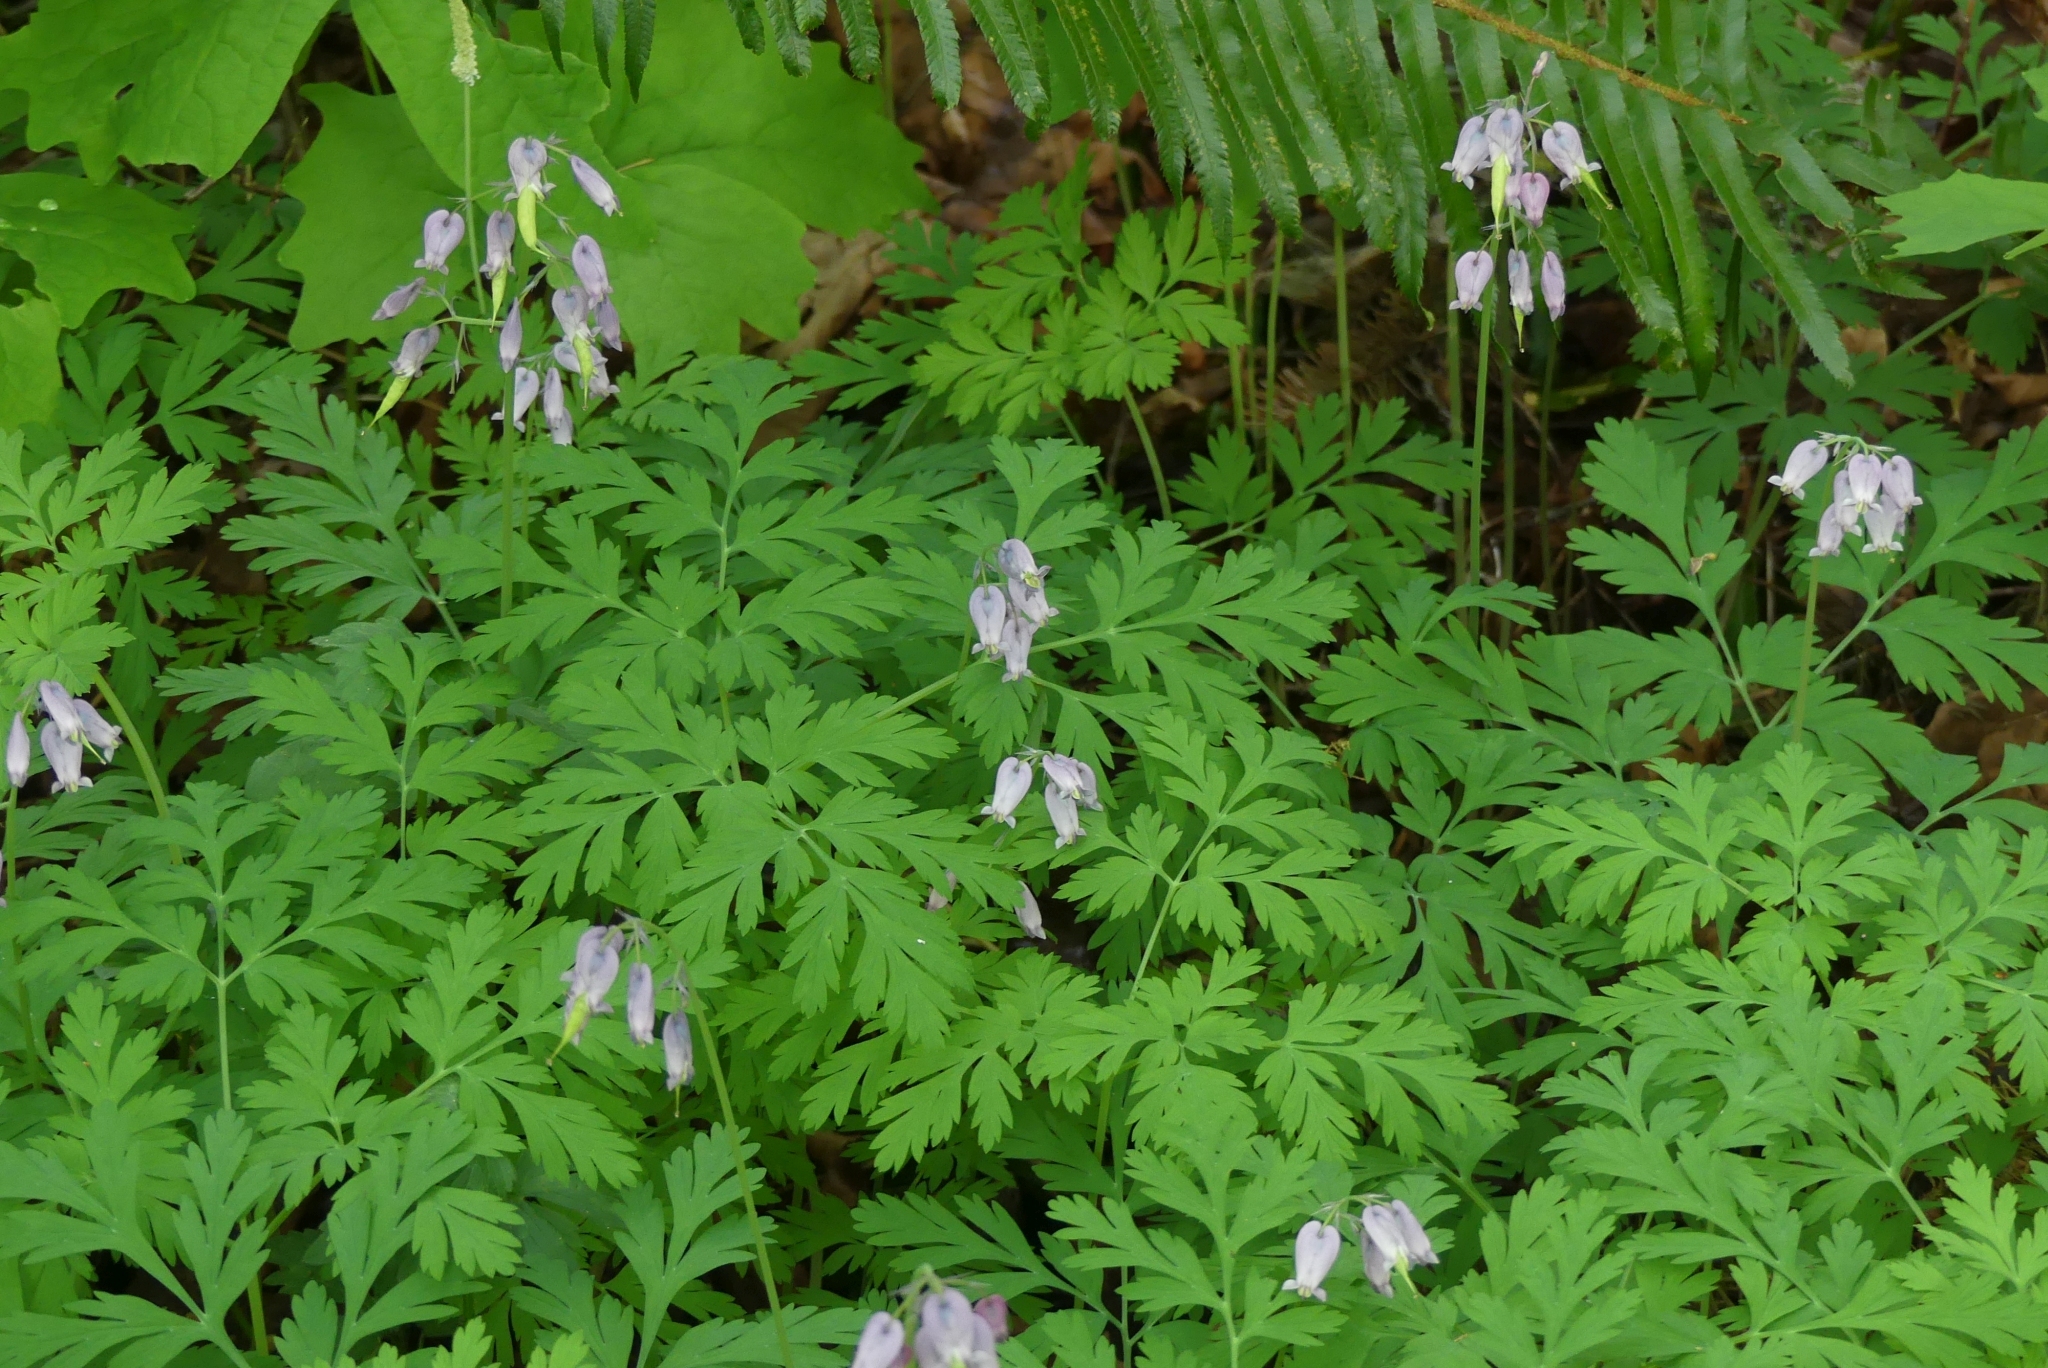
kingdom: Plantae
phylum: Tracheophyta
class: Magnoliopsida
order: Ranunculales
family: Papaveraceae
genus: Dicentra
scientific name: Dicentra formosa
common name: Bleeding-heart
